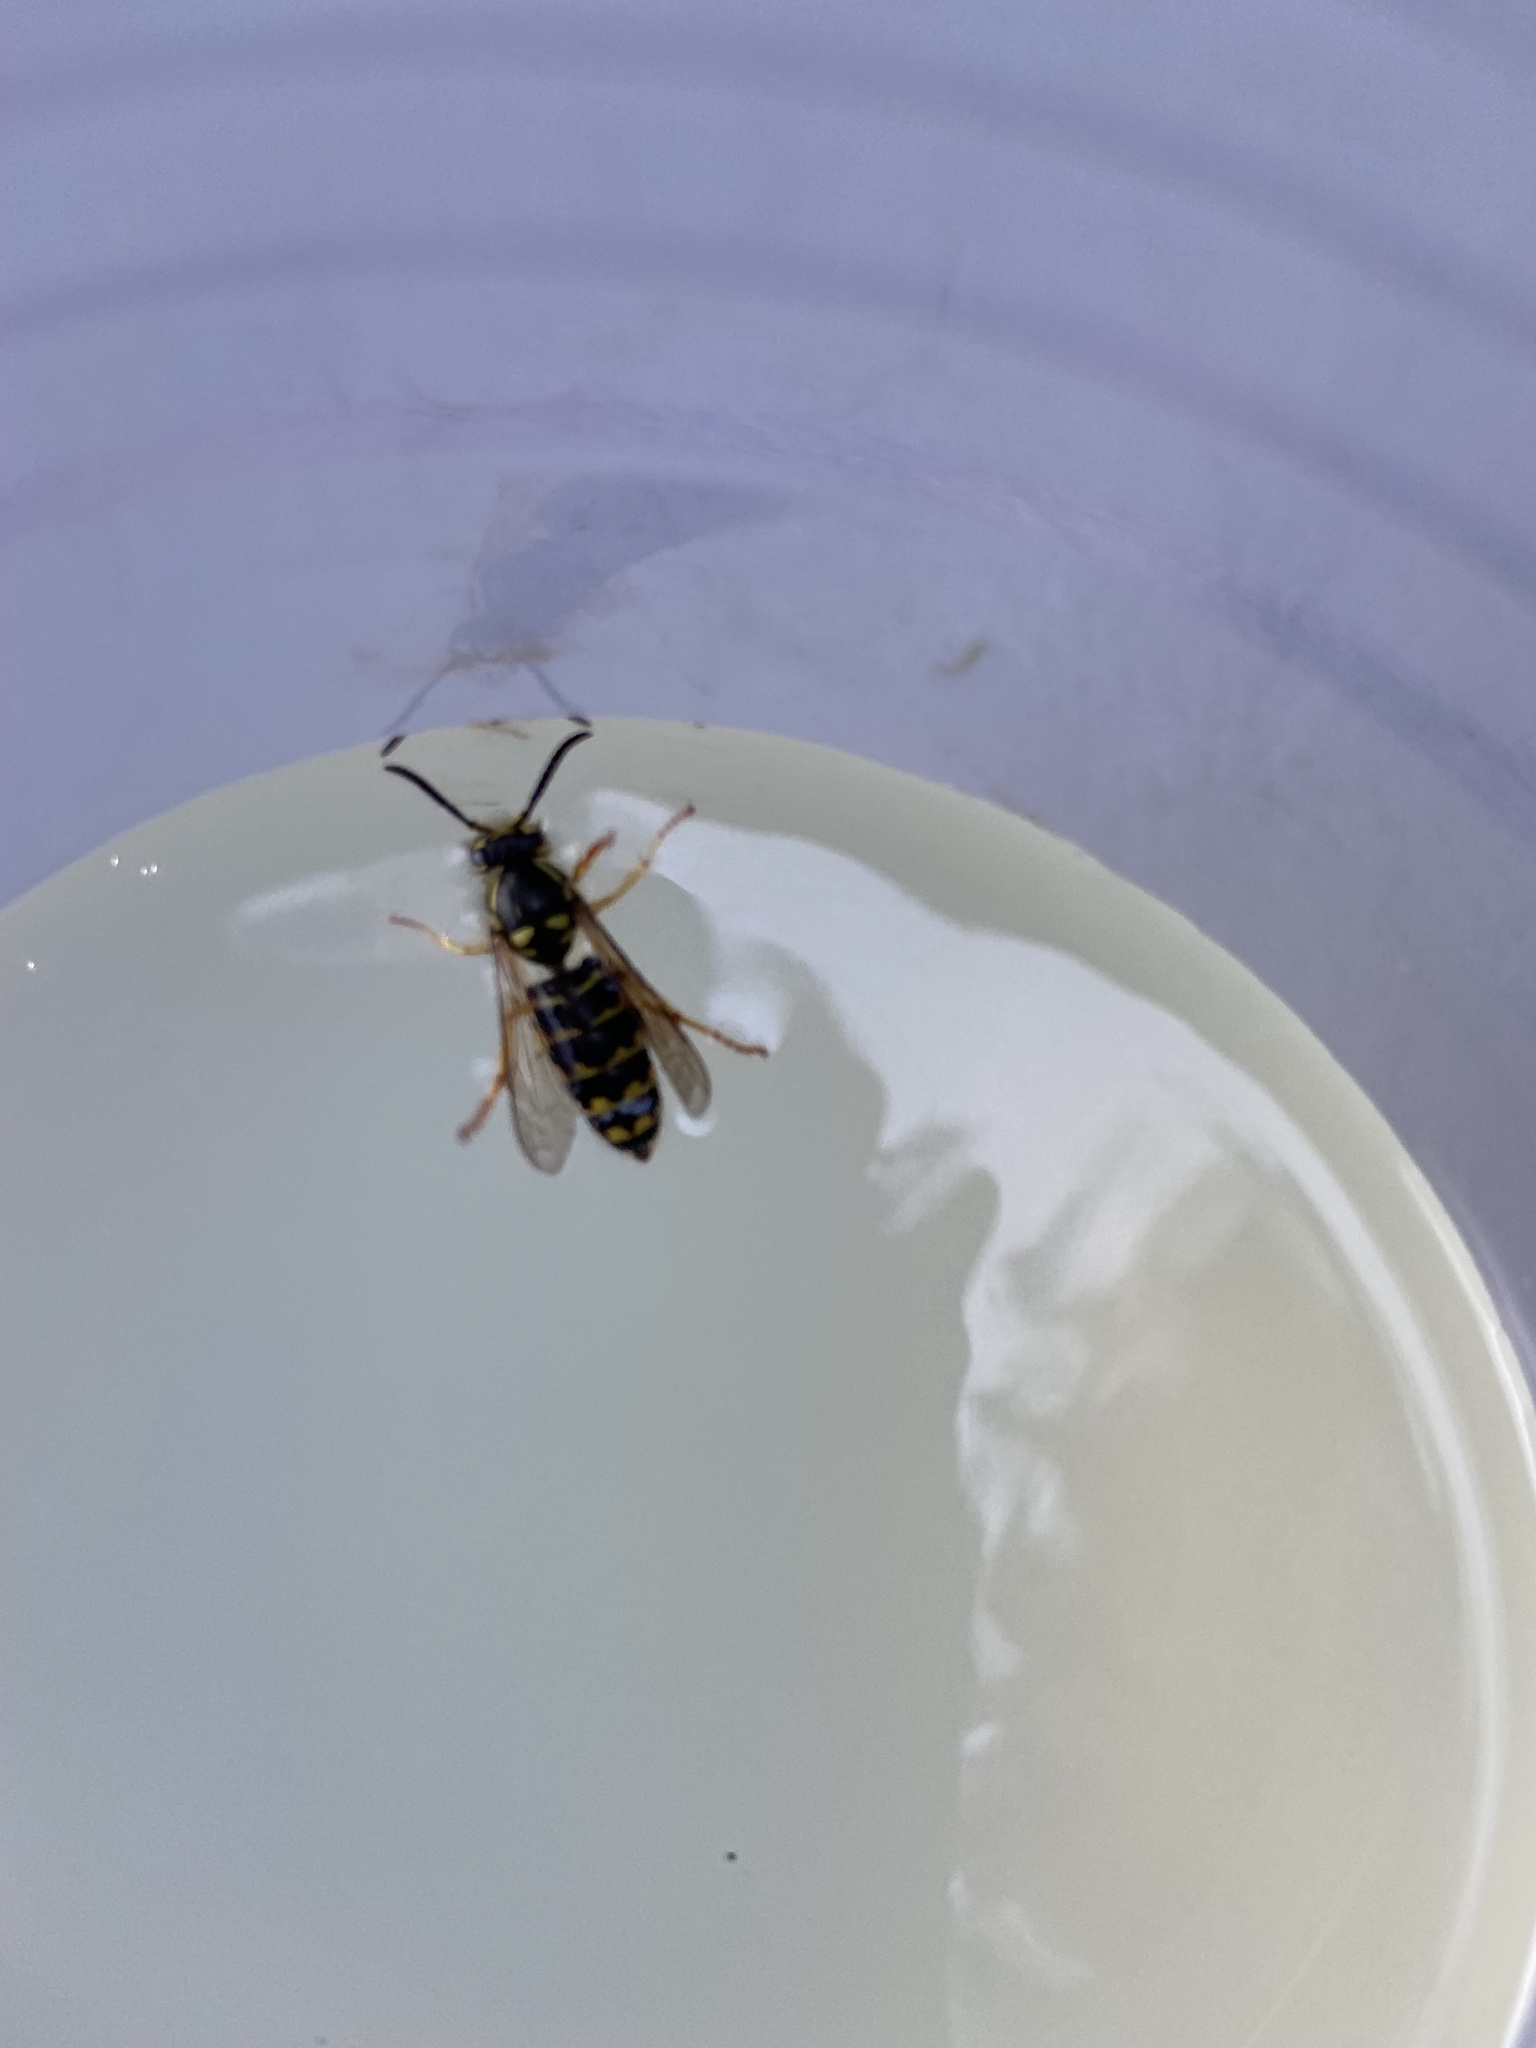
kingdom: Animalia
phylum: Arthropoda
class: Insecta
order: Hymenoptera
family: Vespidae
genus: Dolichovespula
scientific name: Dolichovespula arenaria
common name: Aerial yellowjacket
